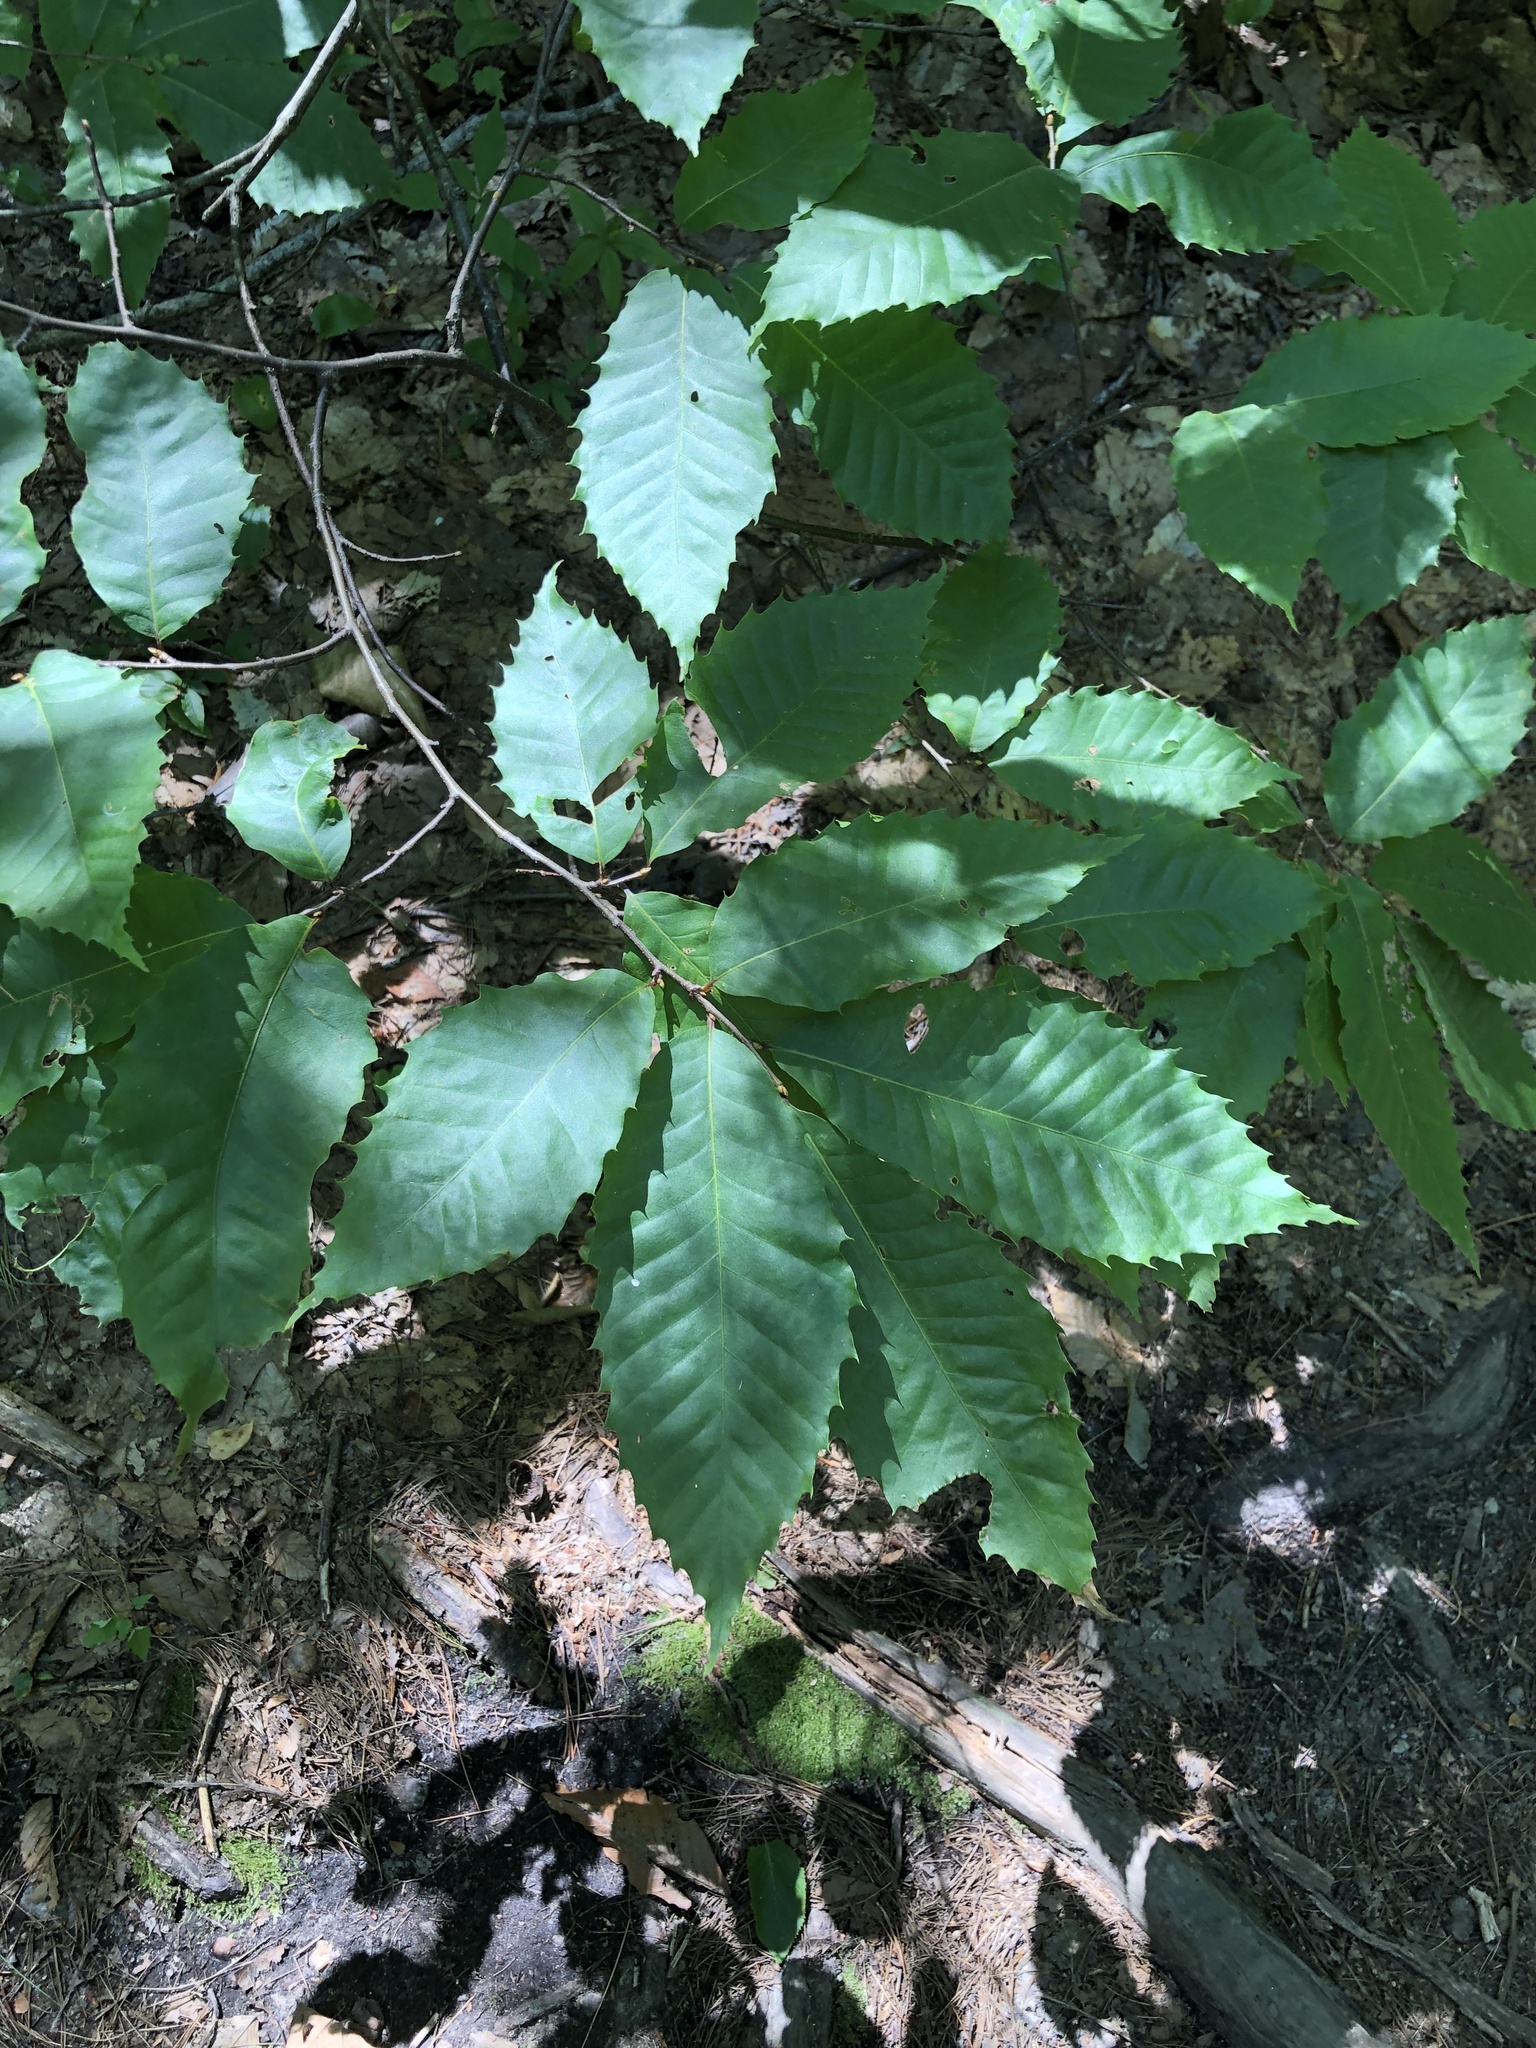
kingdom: Plantae
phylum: Tracheophyta
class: Magnoliopsida
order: Fagales
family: Fagaceae
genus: Castanea
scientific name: Castanea dentata
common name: American chestnut
